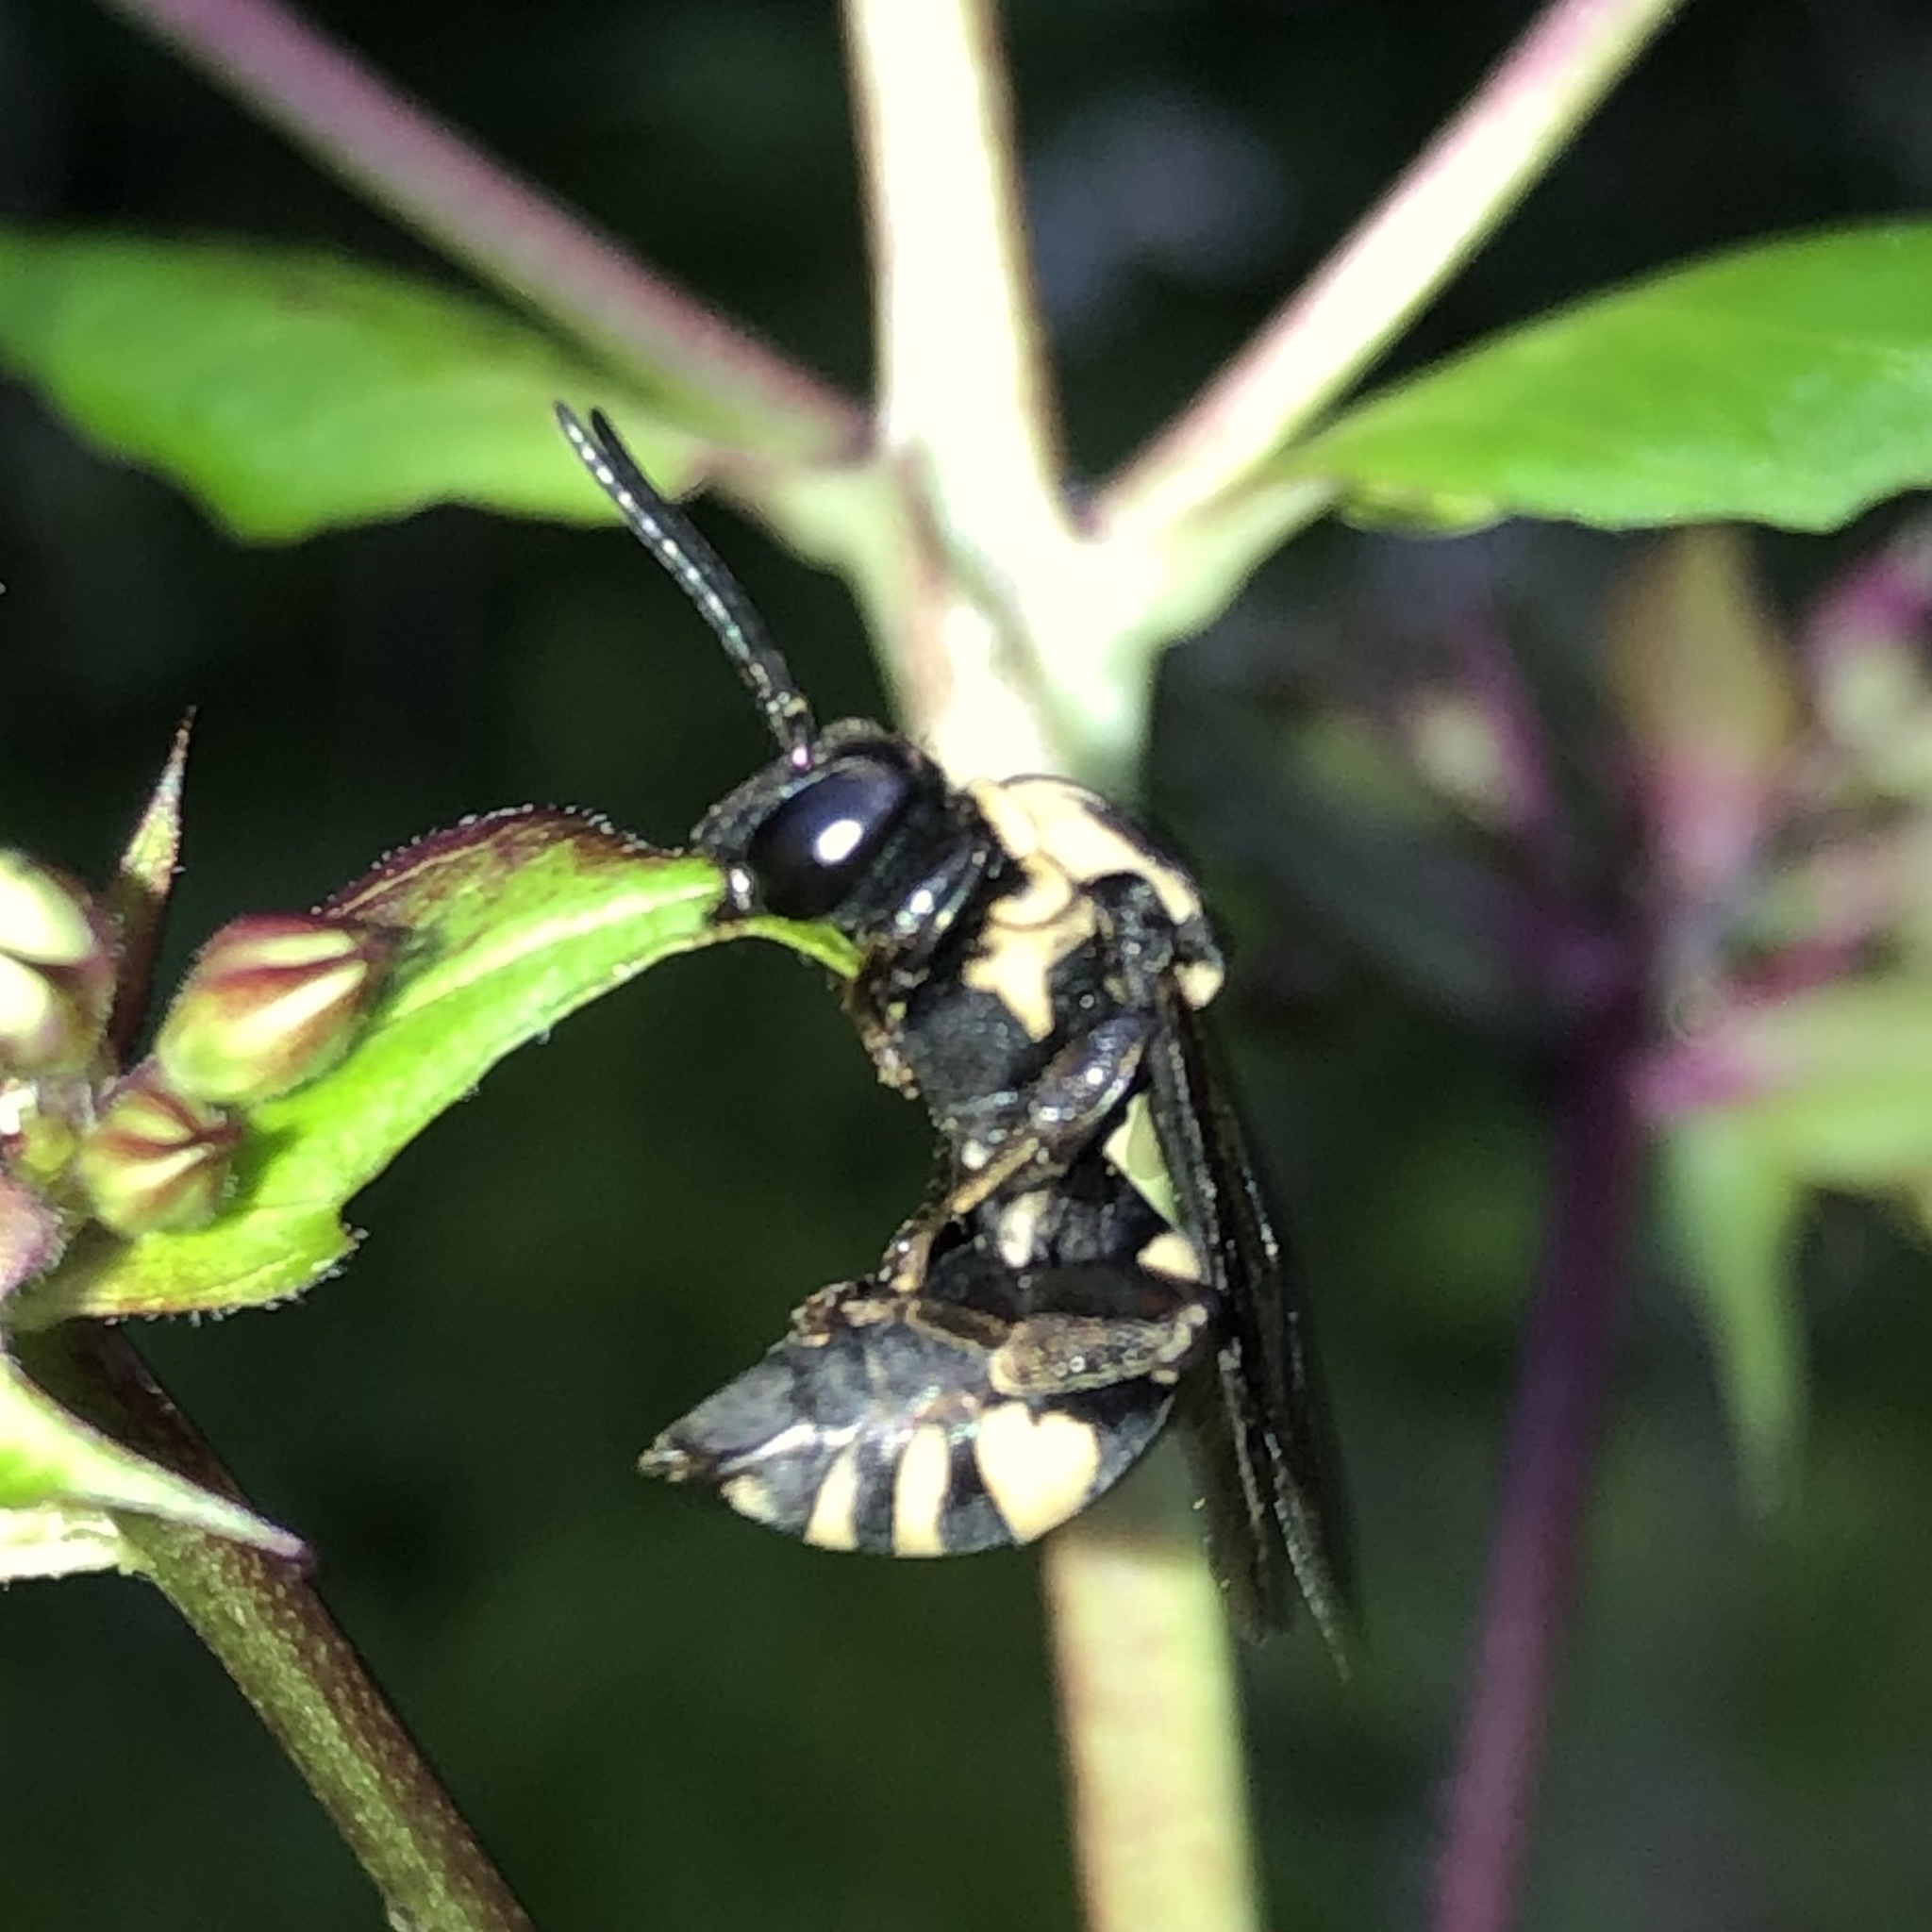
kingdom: Animalia
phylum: Arthropoda
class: Insecta
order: Hymenoptera
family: Apidae
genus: Triepeolus
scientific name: Triepeolus remigatus
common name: Squash longhorn-cuckoo
